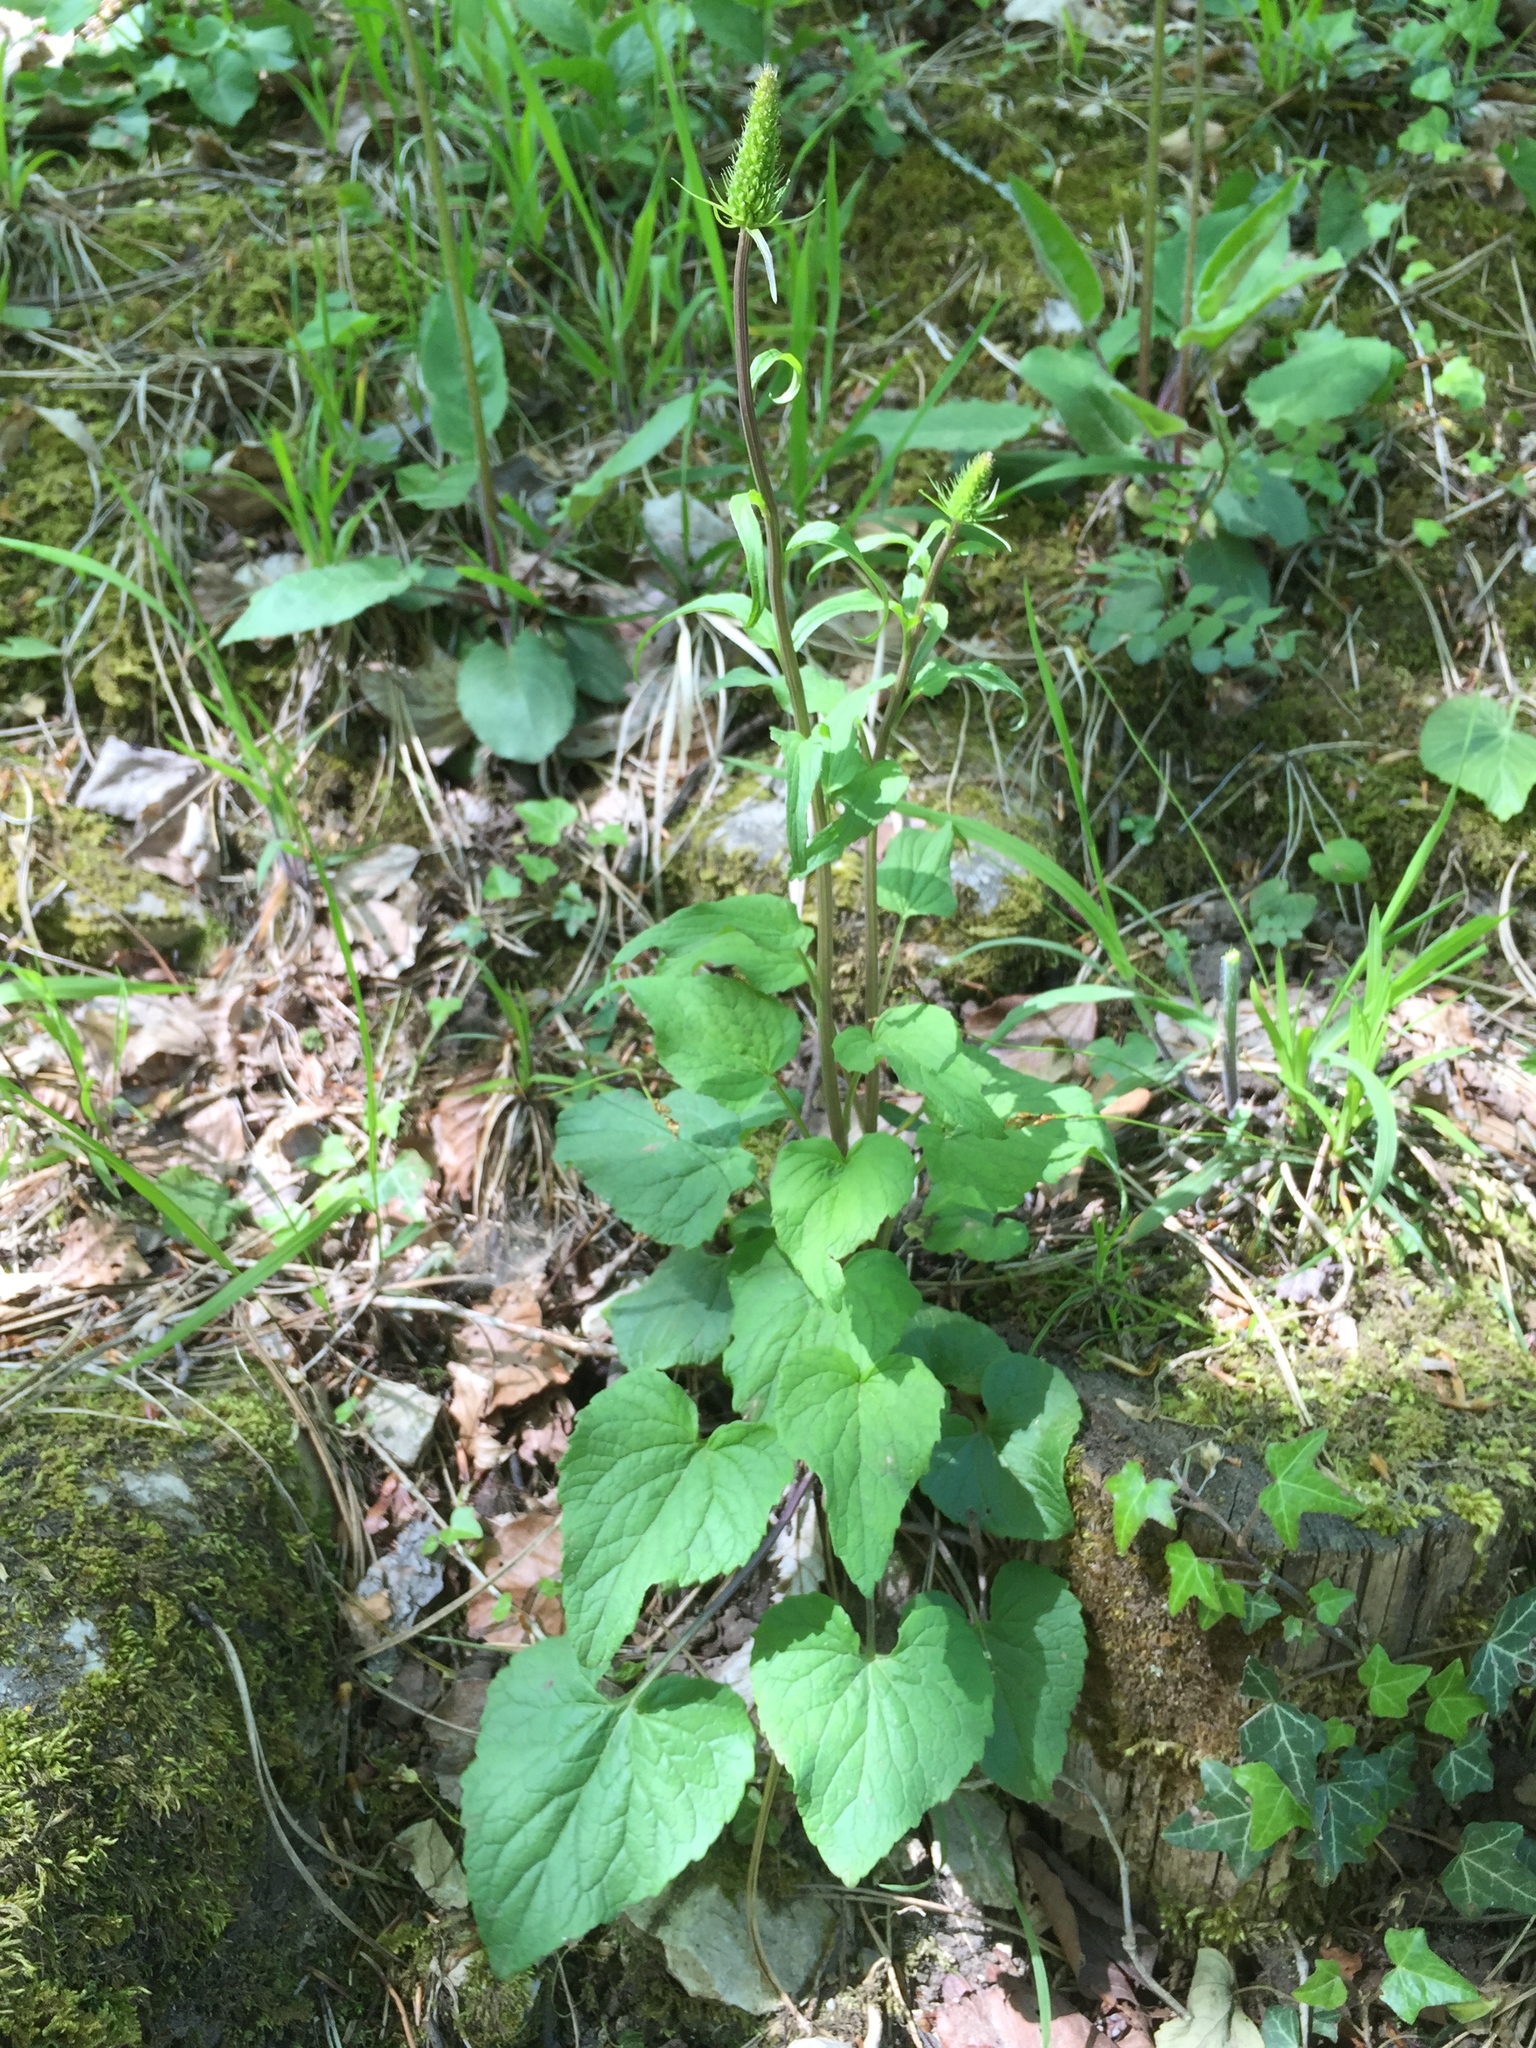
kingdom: Plantae
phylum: Tracheophyta
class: Magnoliopsida
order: Asterales
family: Campanulaceae
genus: Phyteuma
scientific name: Phyteuma spicatum
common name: Spiked rampion
